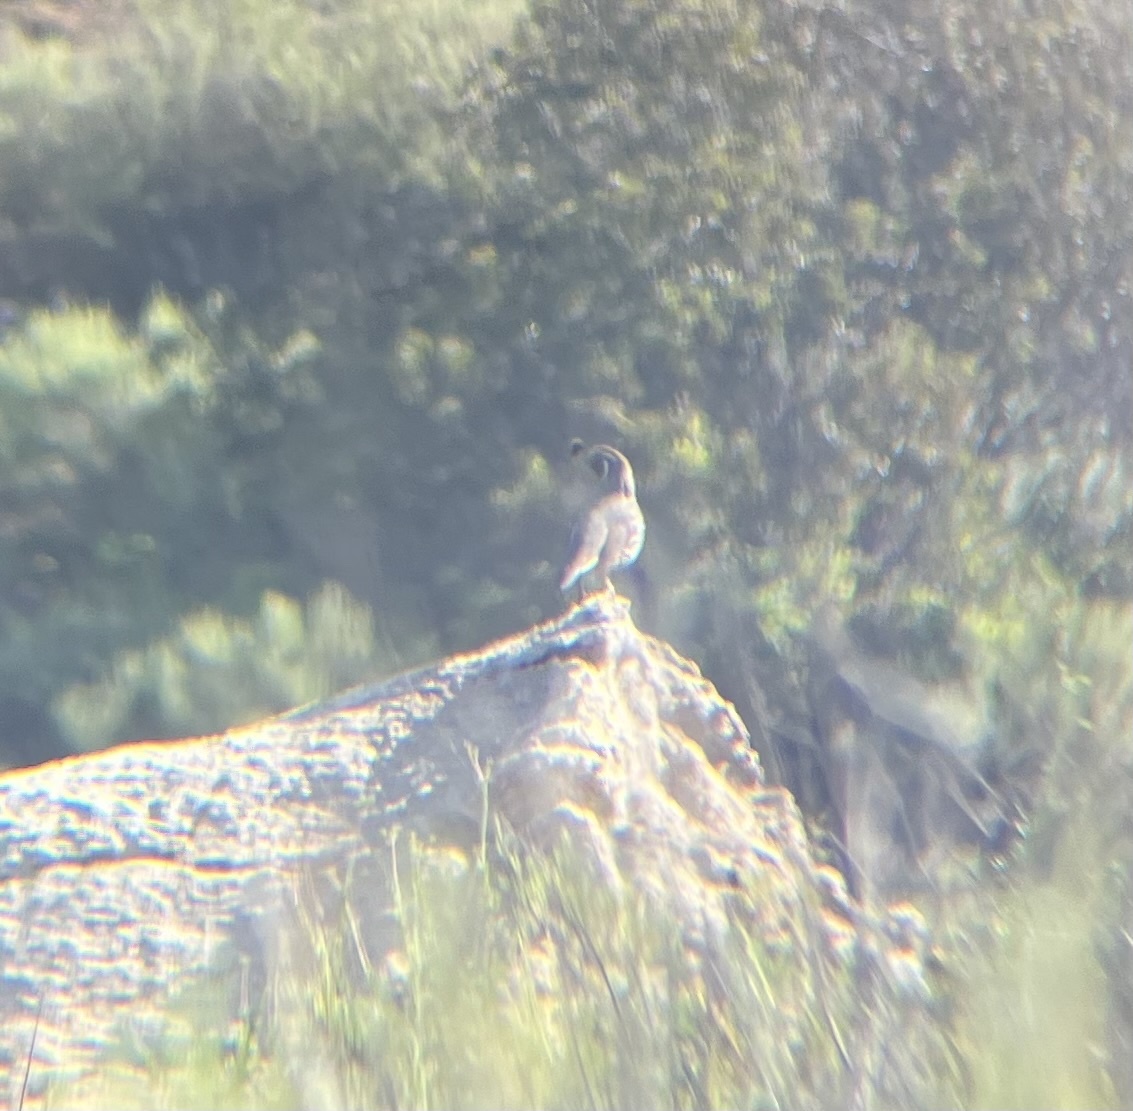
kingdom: Animalia
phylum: Chordata
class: Aves
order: Galliformes
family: Odontophoridae
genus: Callipepla
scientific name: Callipepla californica
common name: California quail
